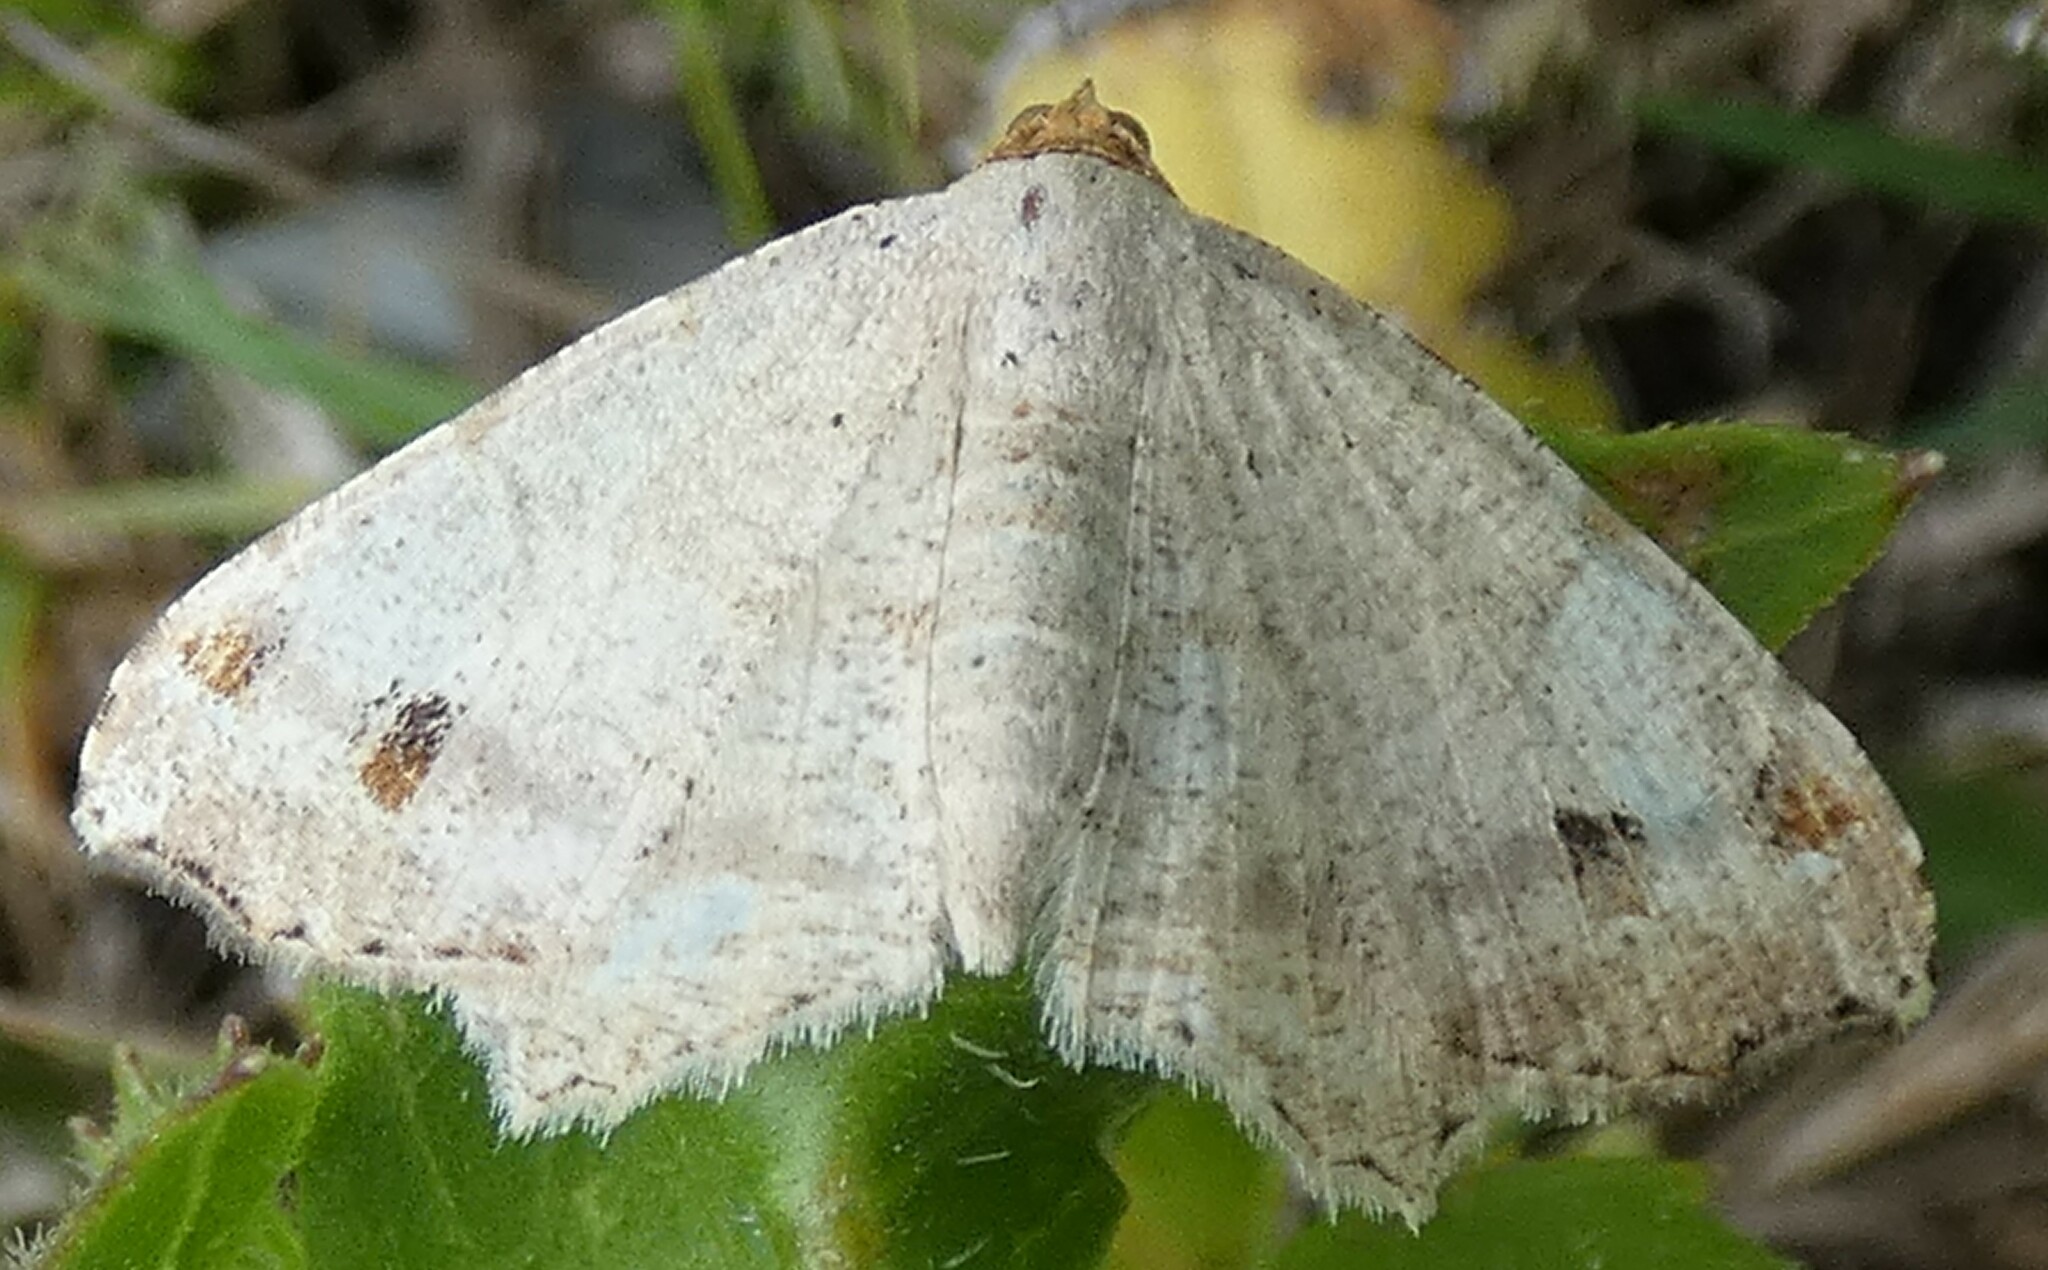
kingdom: Animalia
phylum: Arthropoda
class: Insecta
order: Lepidoptera
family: Geometridae
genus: Macaria
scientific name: Macaria aemulataria
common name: Common angle
